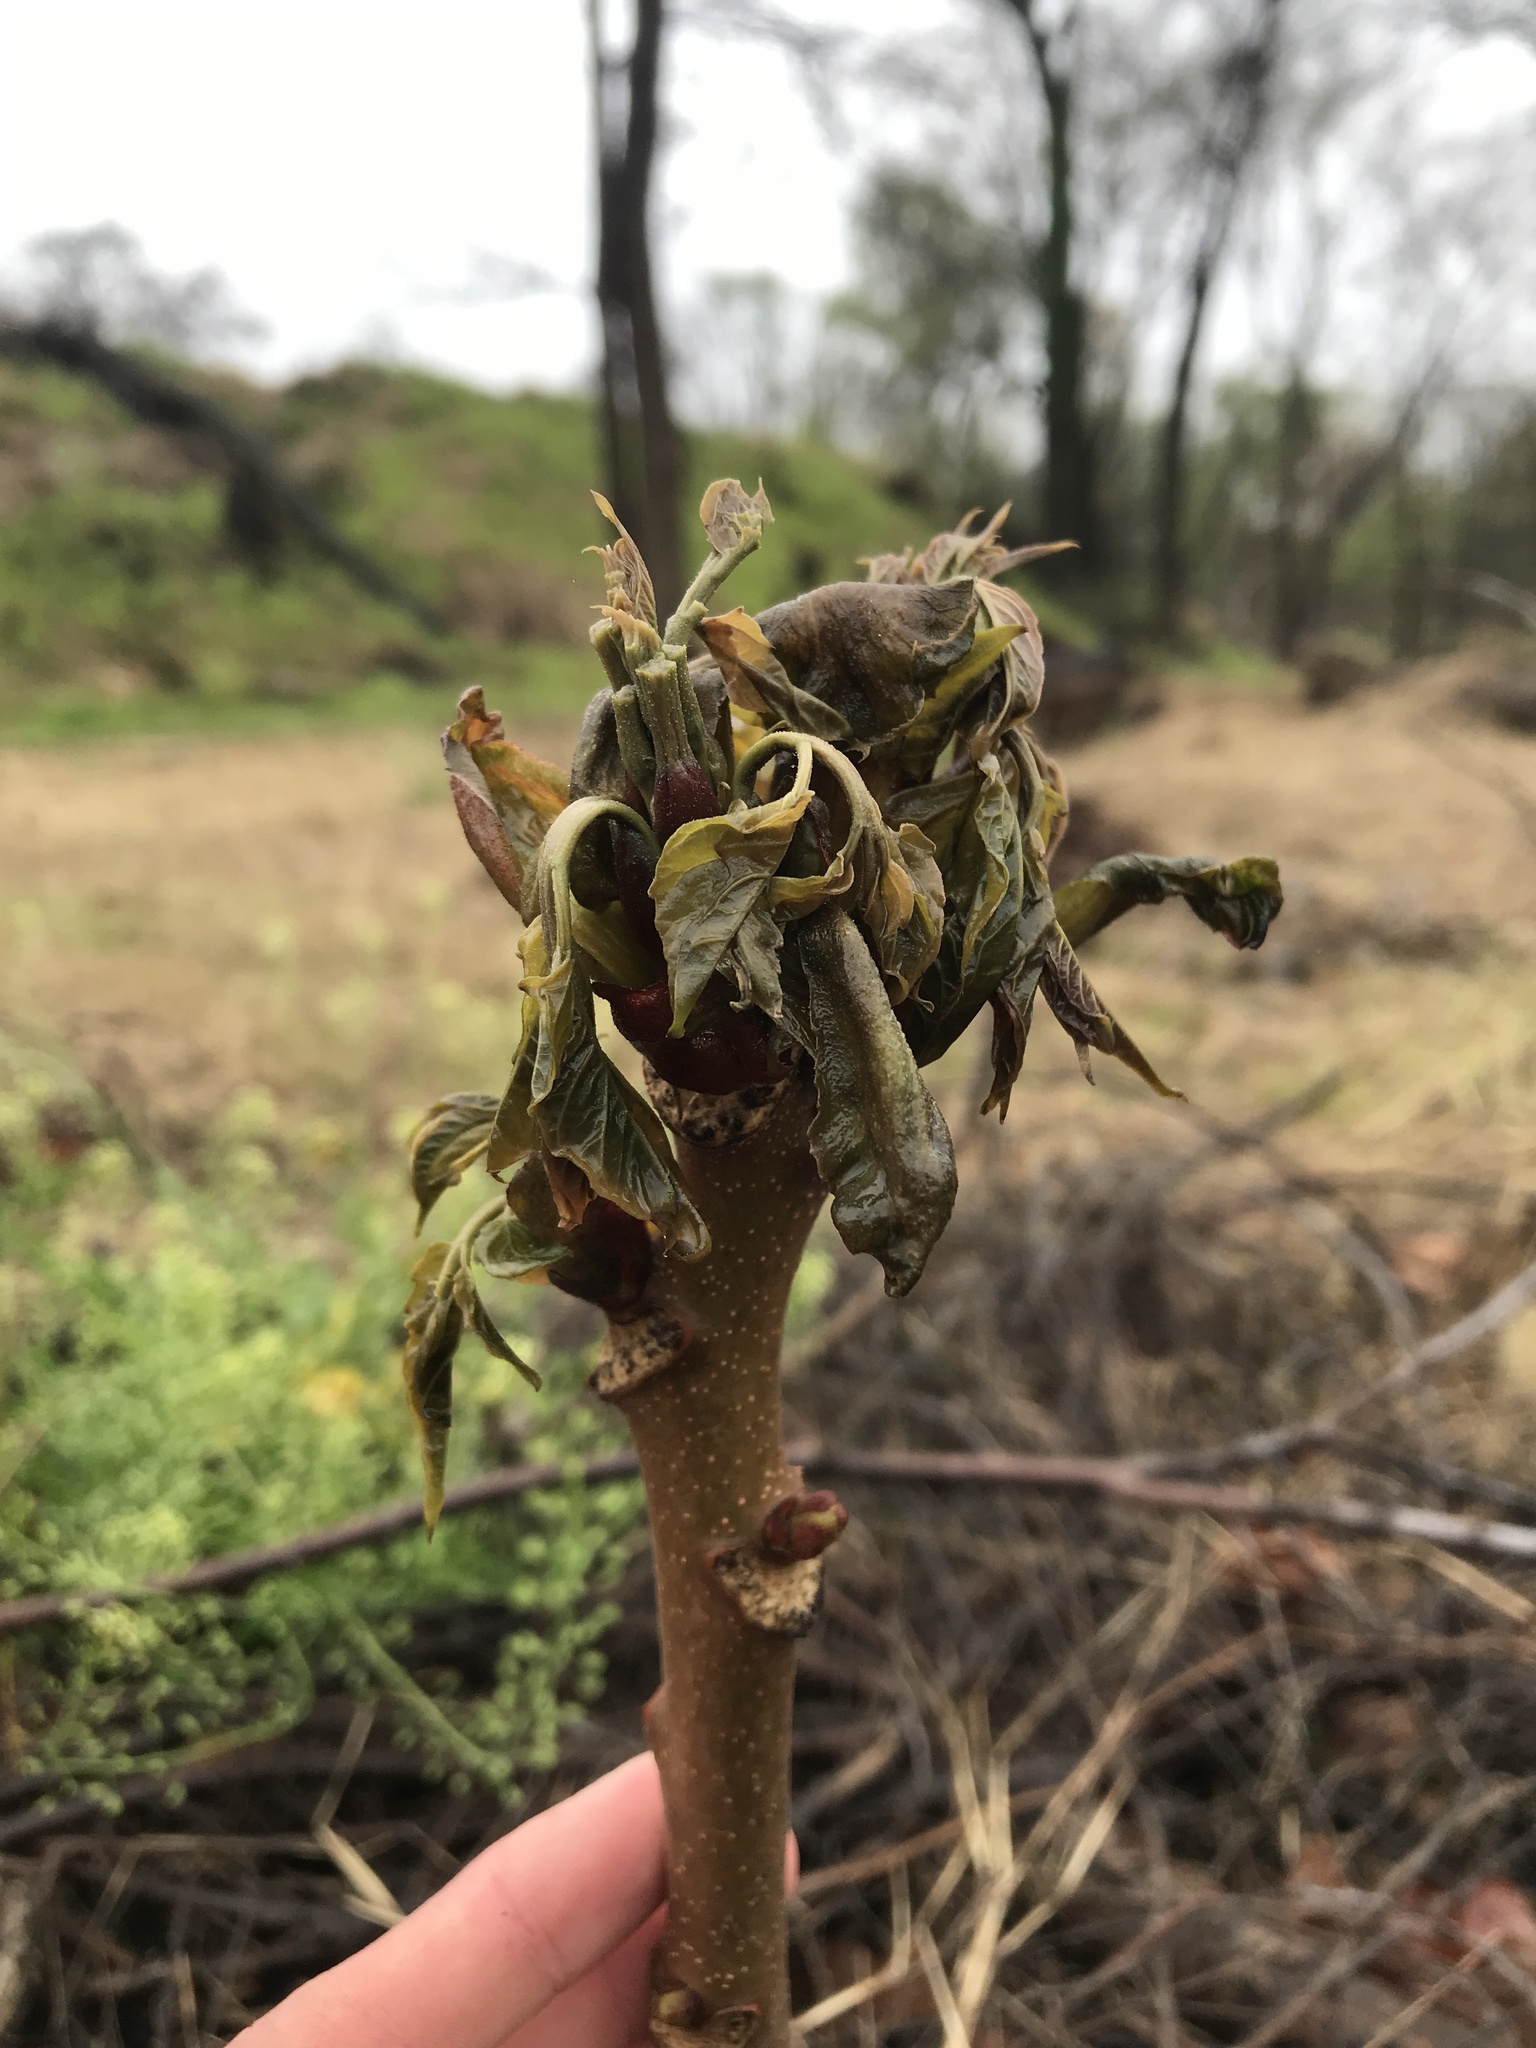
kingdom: Plantae
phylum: Tracheophyta
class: Magnoliopsida
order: Sapindales
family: Simaroubaceae
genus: Ailanthus
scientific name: Ailanthus altissima
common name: Tree-of-heaven
